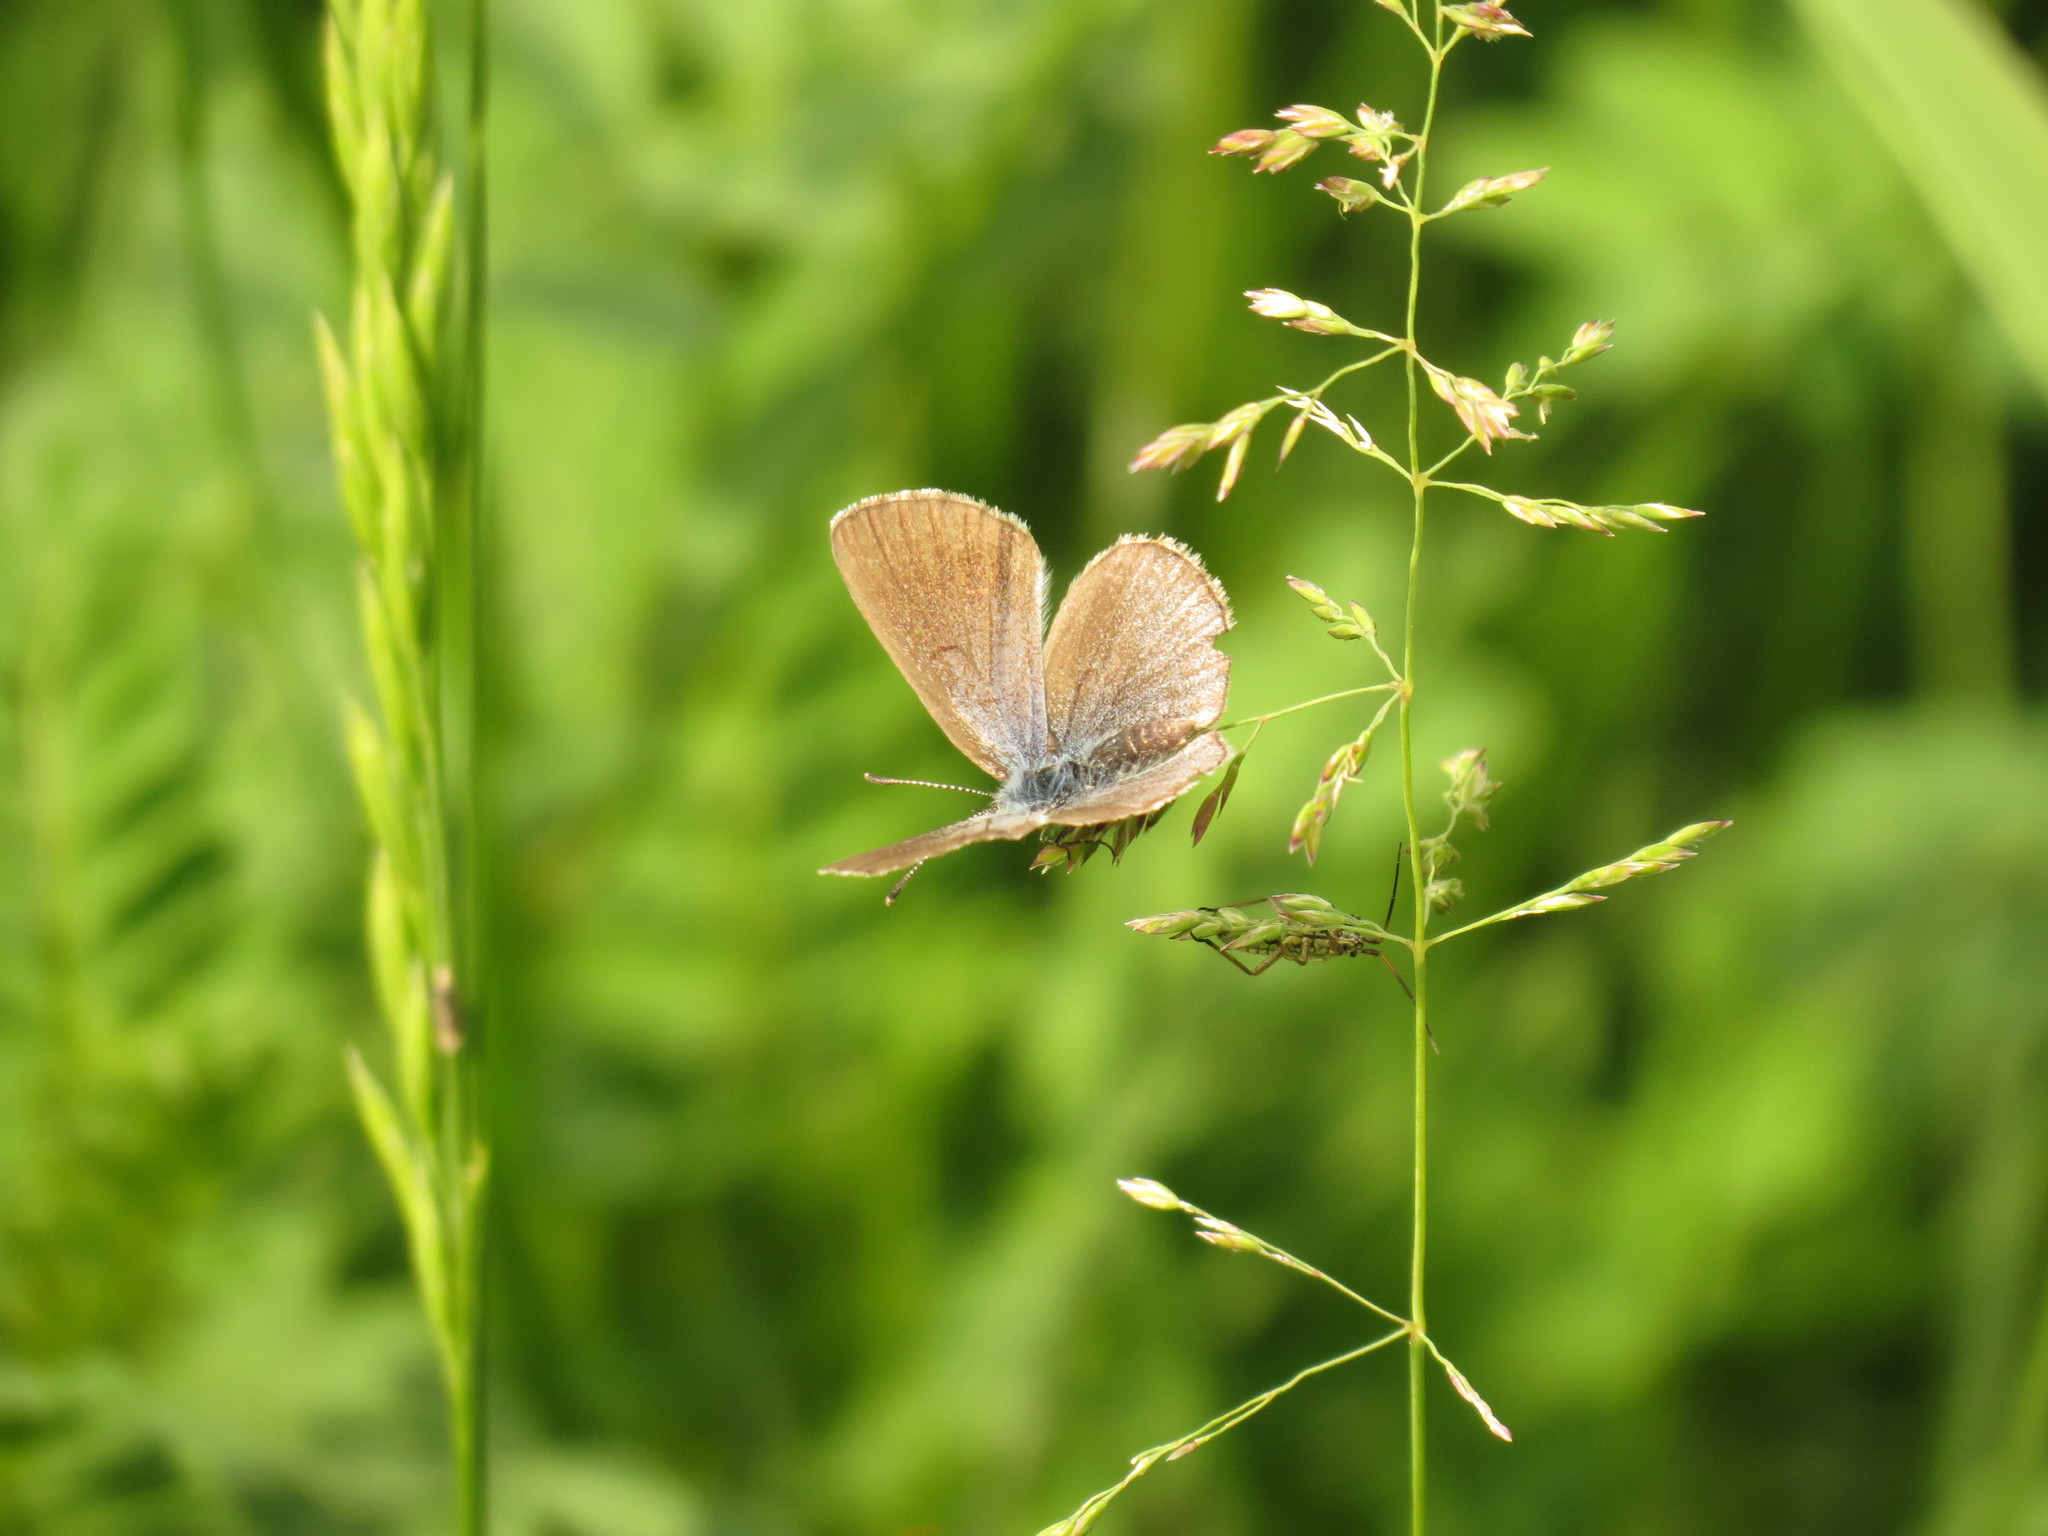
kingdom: Animalia
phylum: Arthropoda
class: Insecta
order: Lepidoptera
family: Lycaenidae
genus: Glaucopsyche
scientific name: Glaucopsyche lygdamus
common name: Silvery blue
